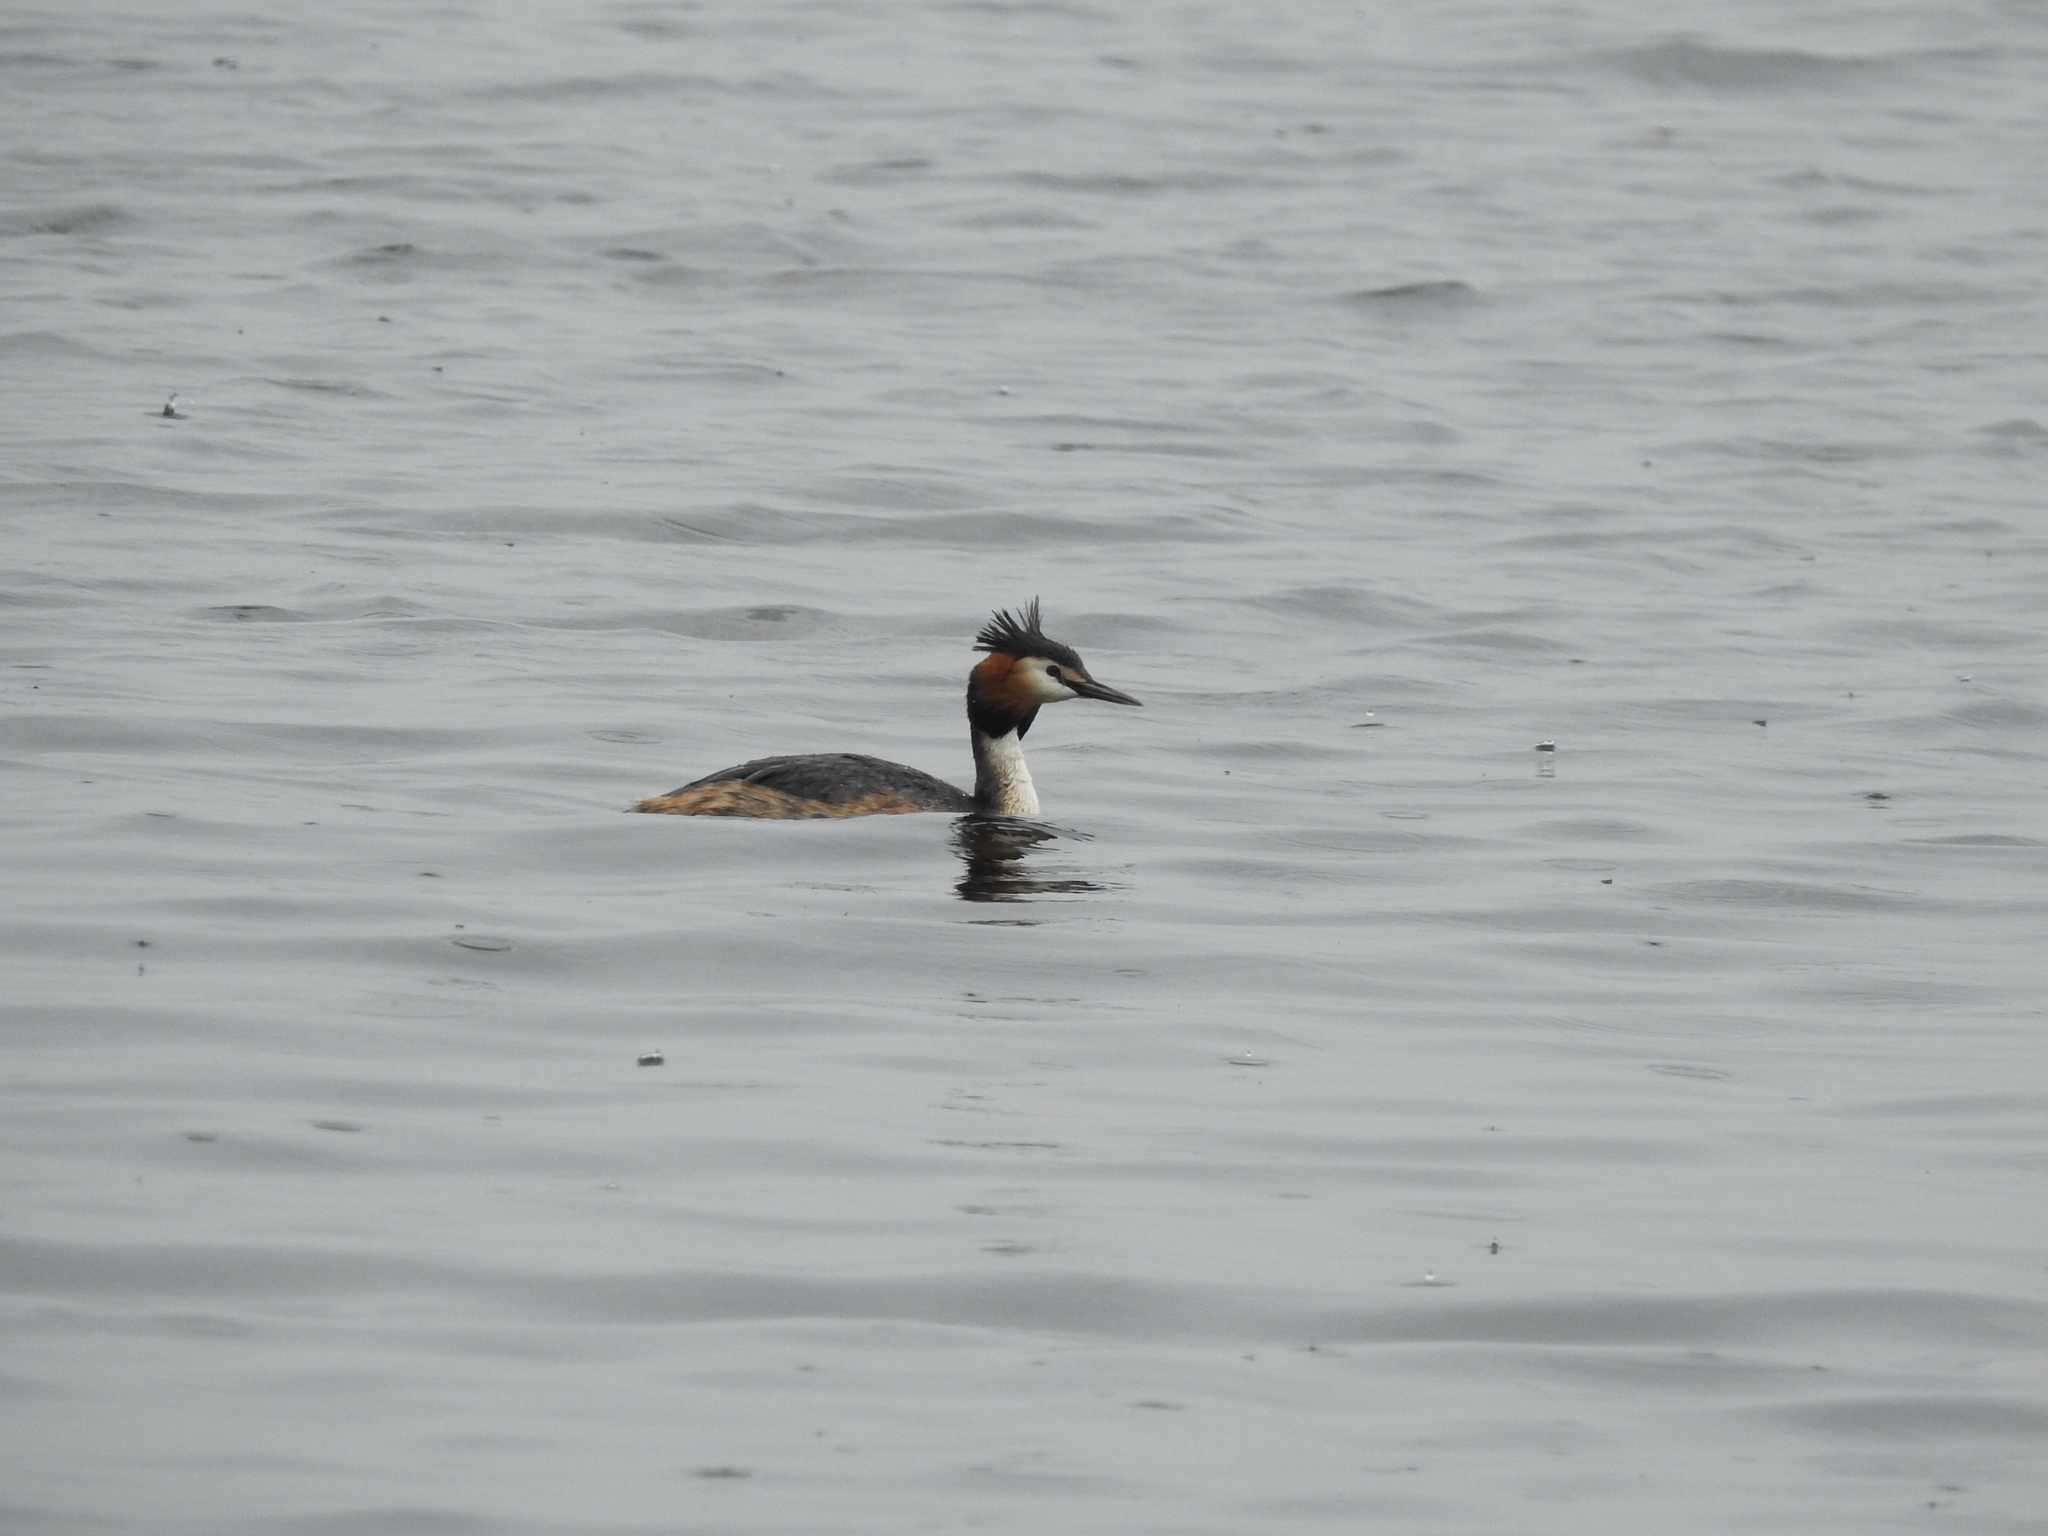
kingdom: Animalia
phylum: Chordata
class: Aves
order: Podicipediformes
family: Podicipedidae
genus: Podiceps
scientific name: Podiceps cristatus
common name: Great crested grebe
